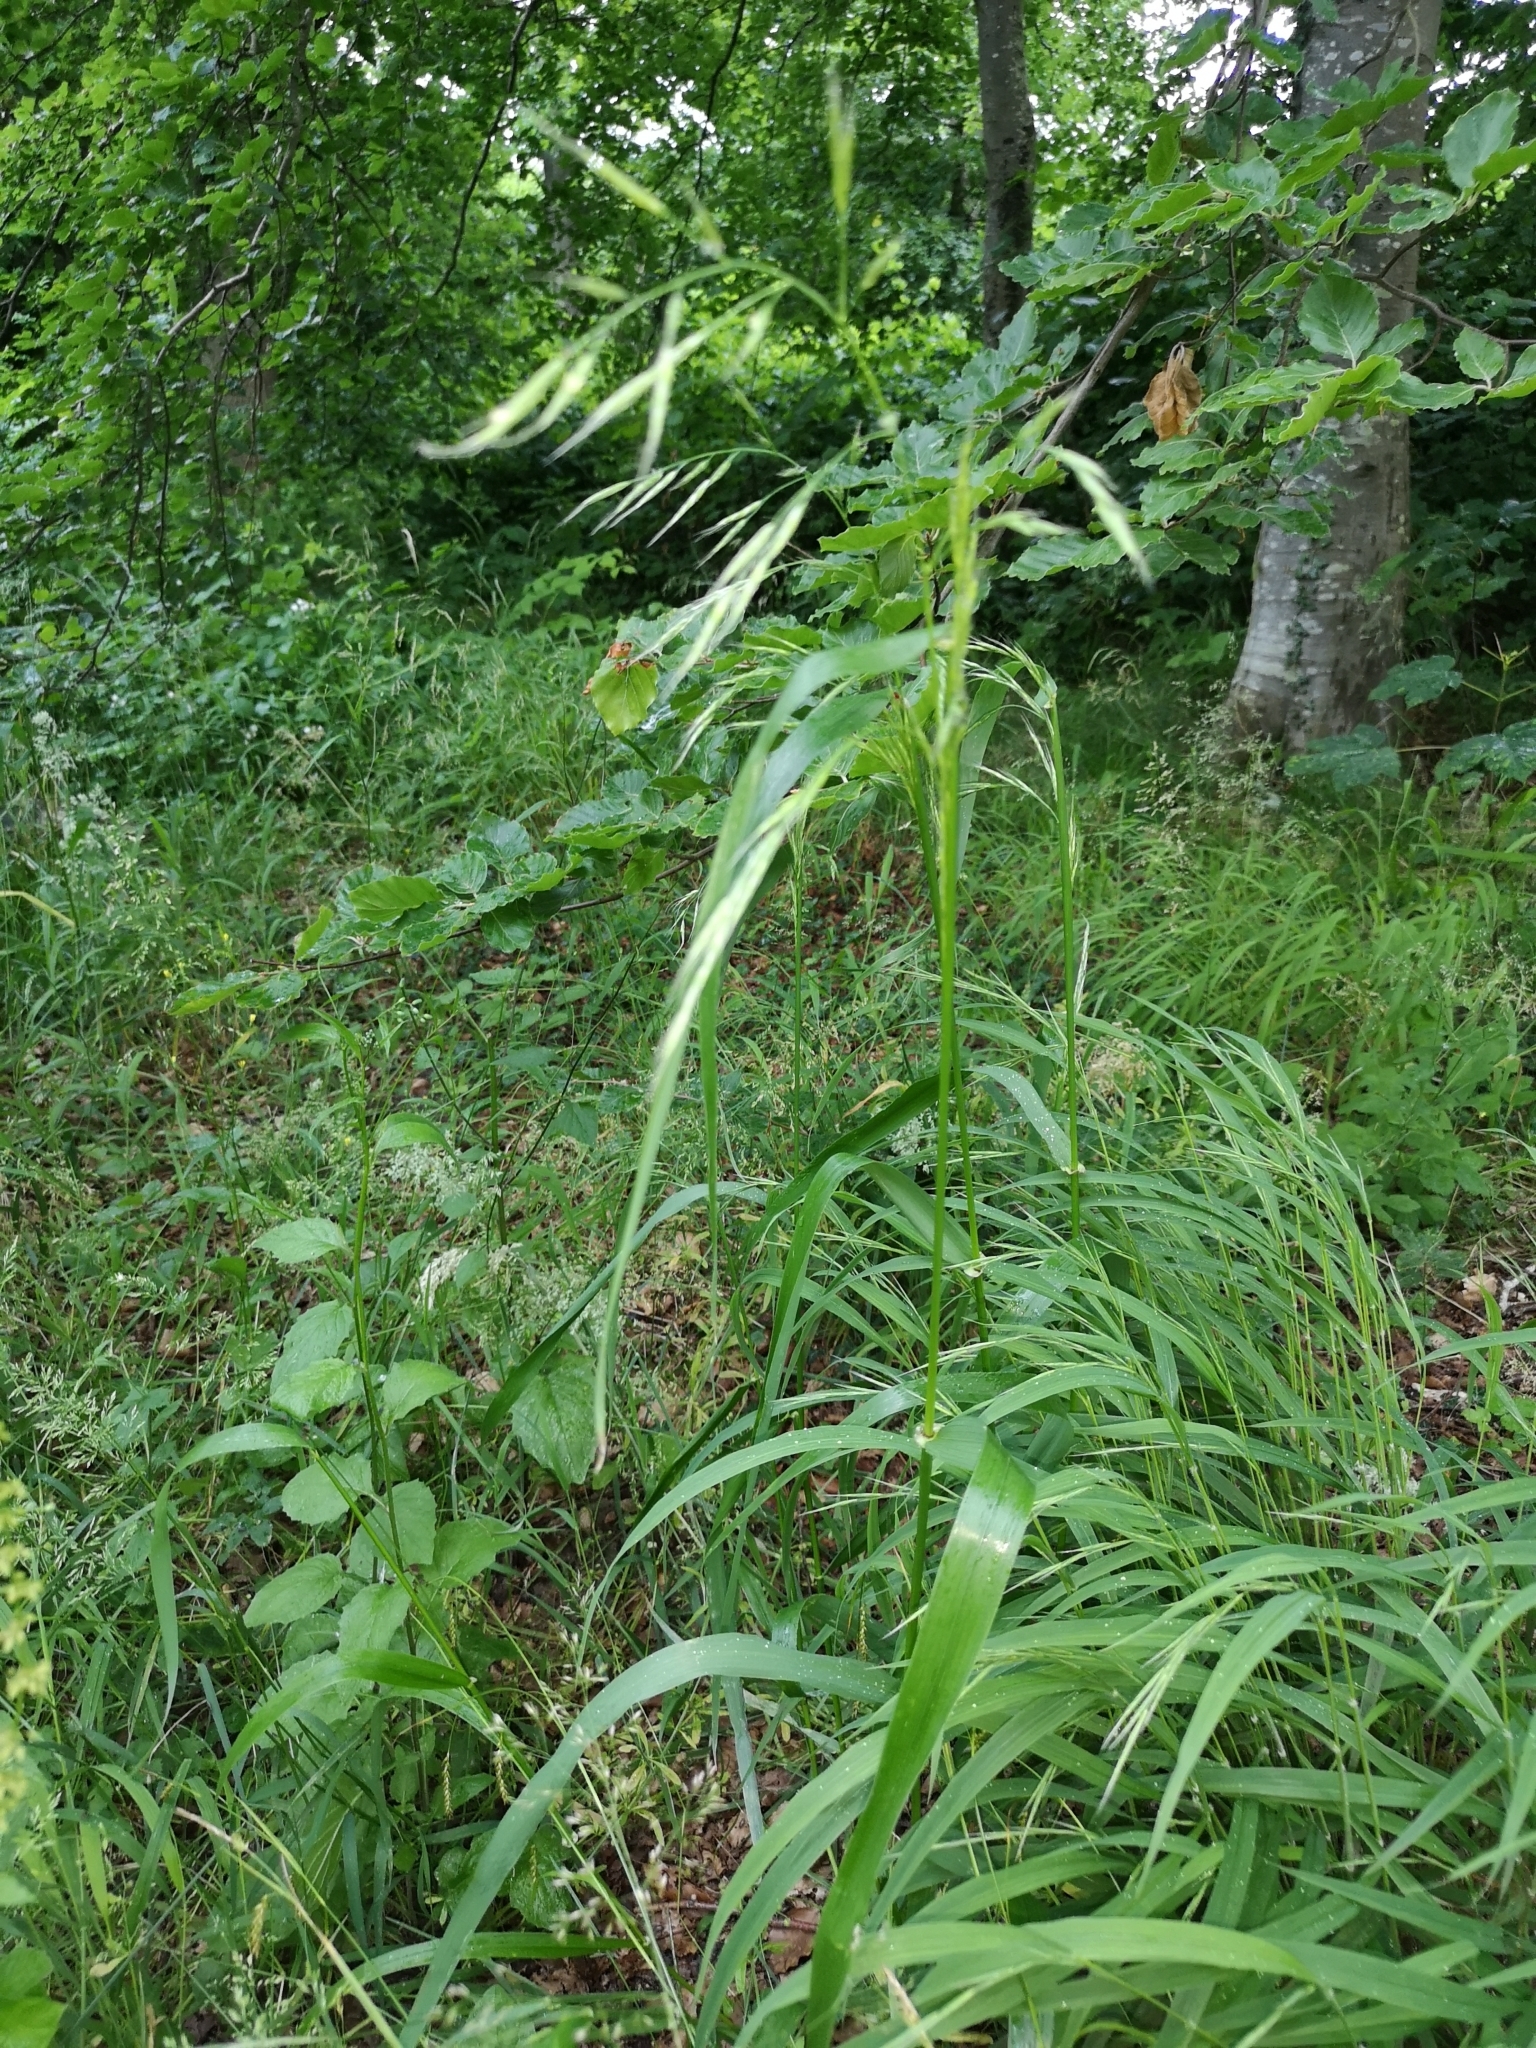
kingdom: Plantae
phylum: Tracheophyta
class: Liliopsida
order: Poales
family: Poaceae
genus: Lolium
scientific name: Lolium giganteum
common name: Giant fescue
